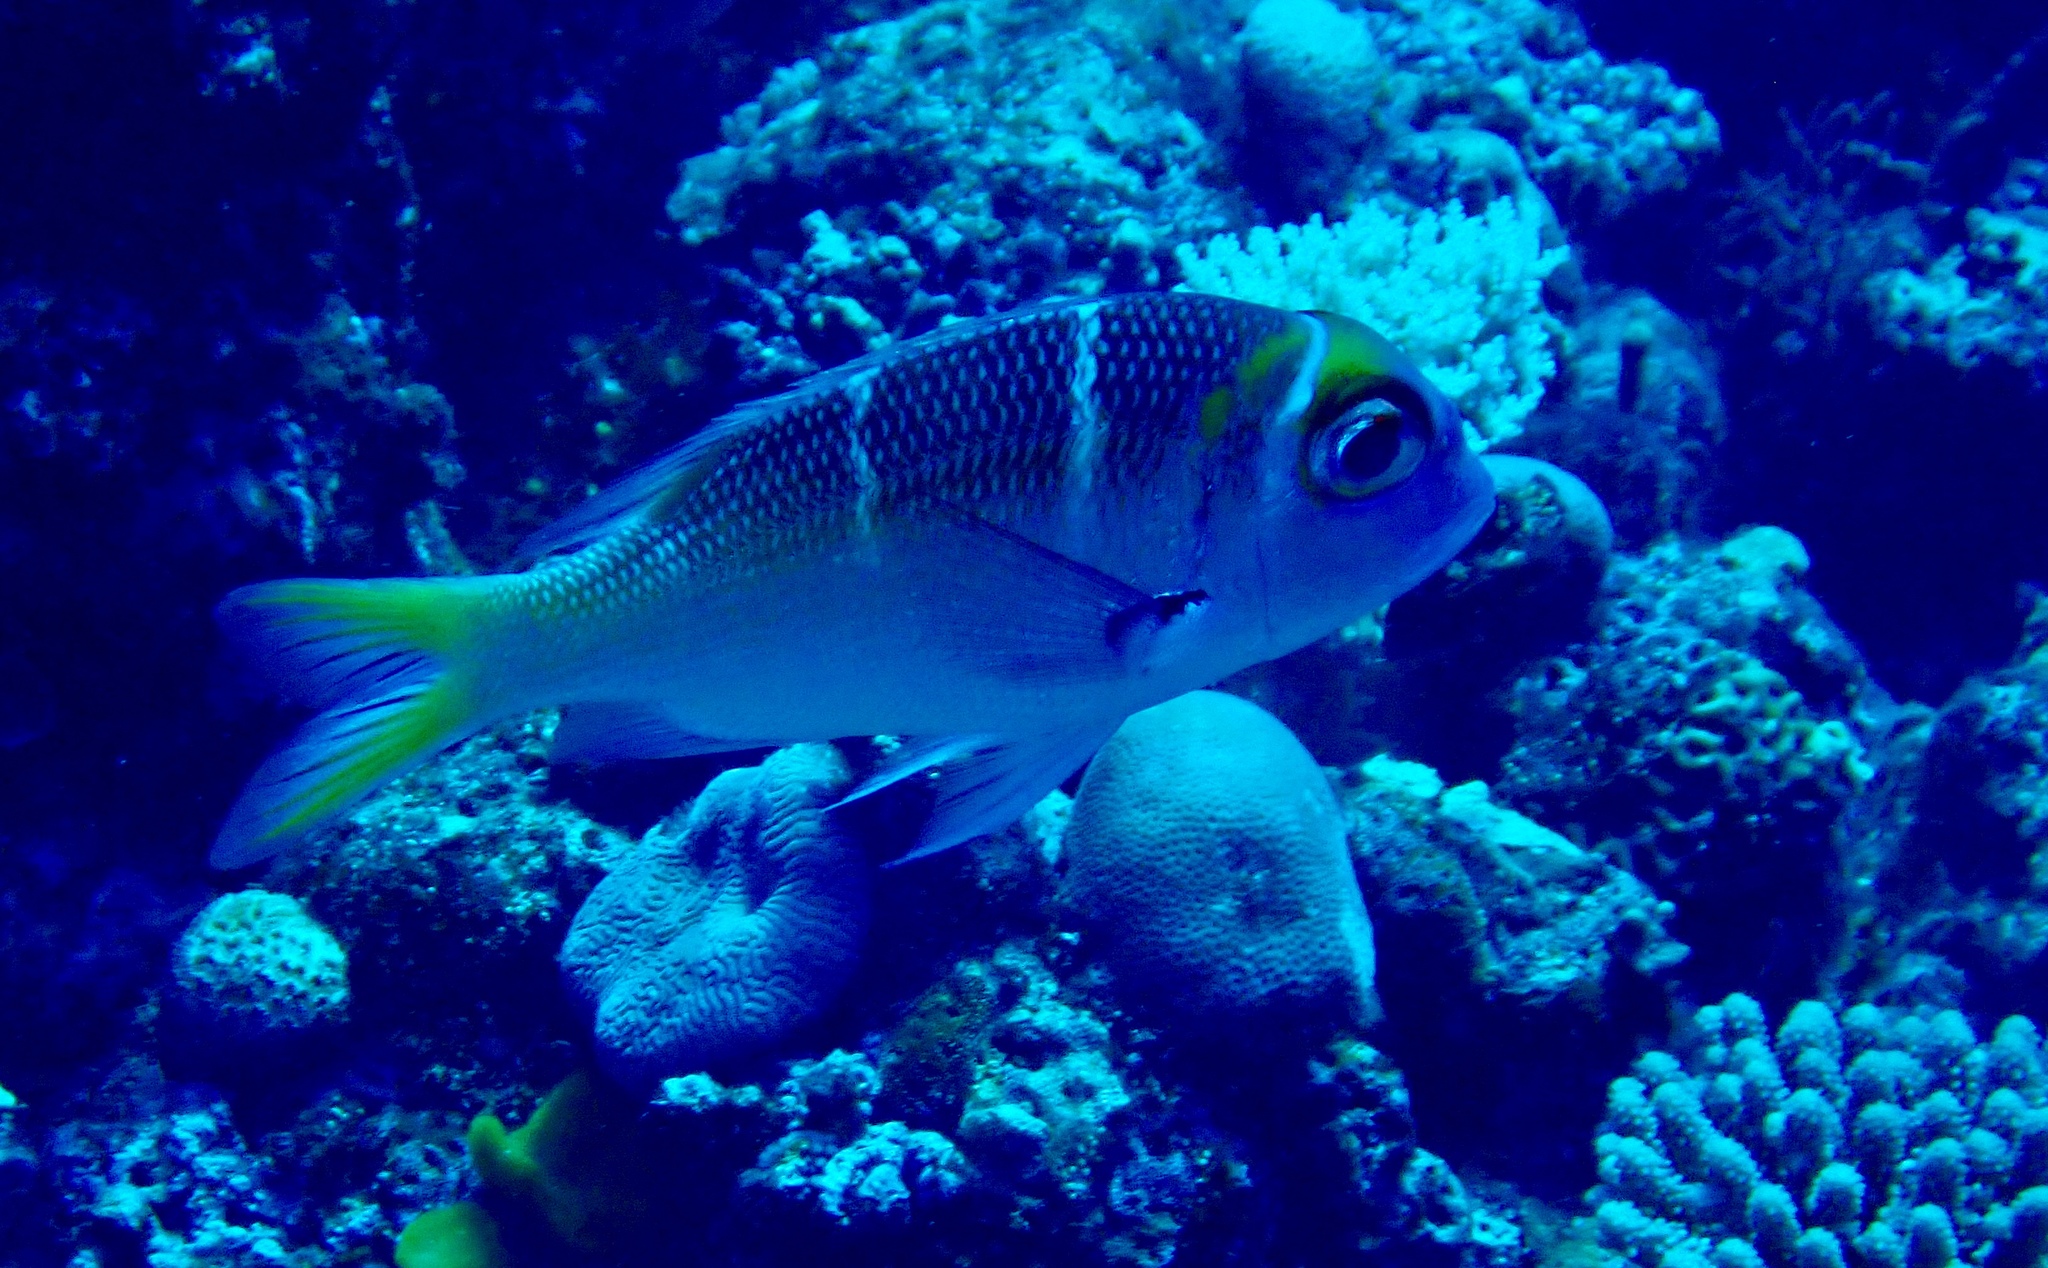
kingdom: Animalia
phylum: Chordata
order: Perciformes
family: Lethrinidae
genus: Monotaxis
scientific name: Monotaxis heterodon
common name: Redfin emperor
